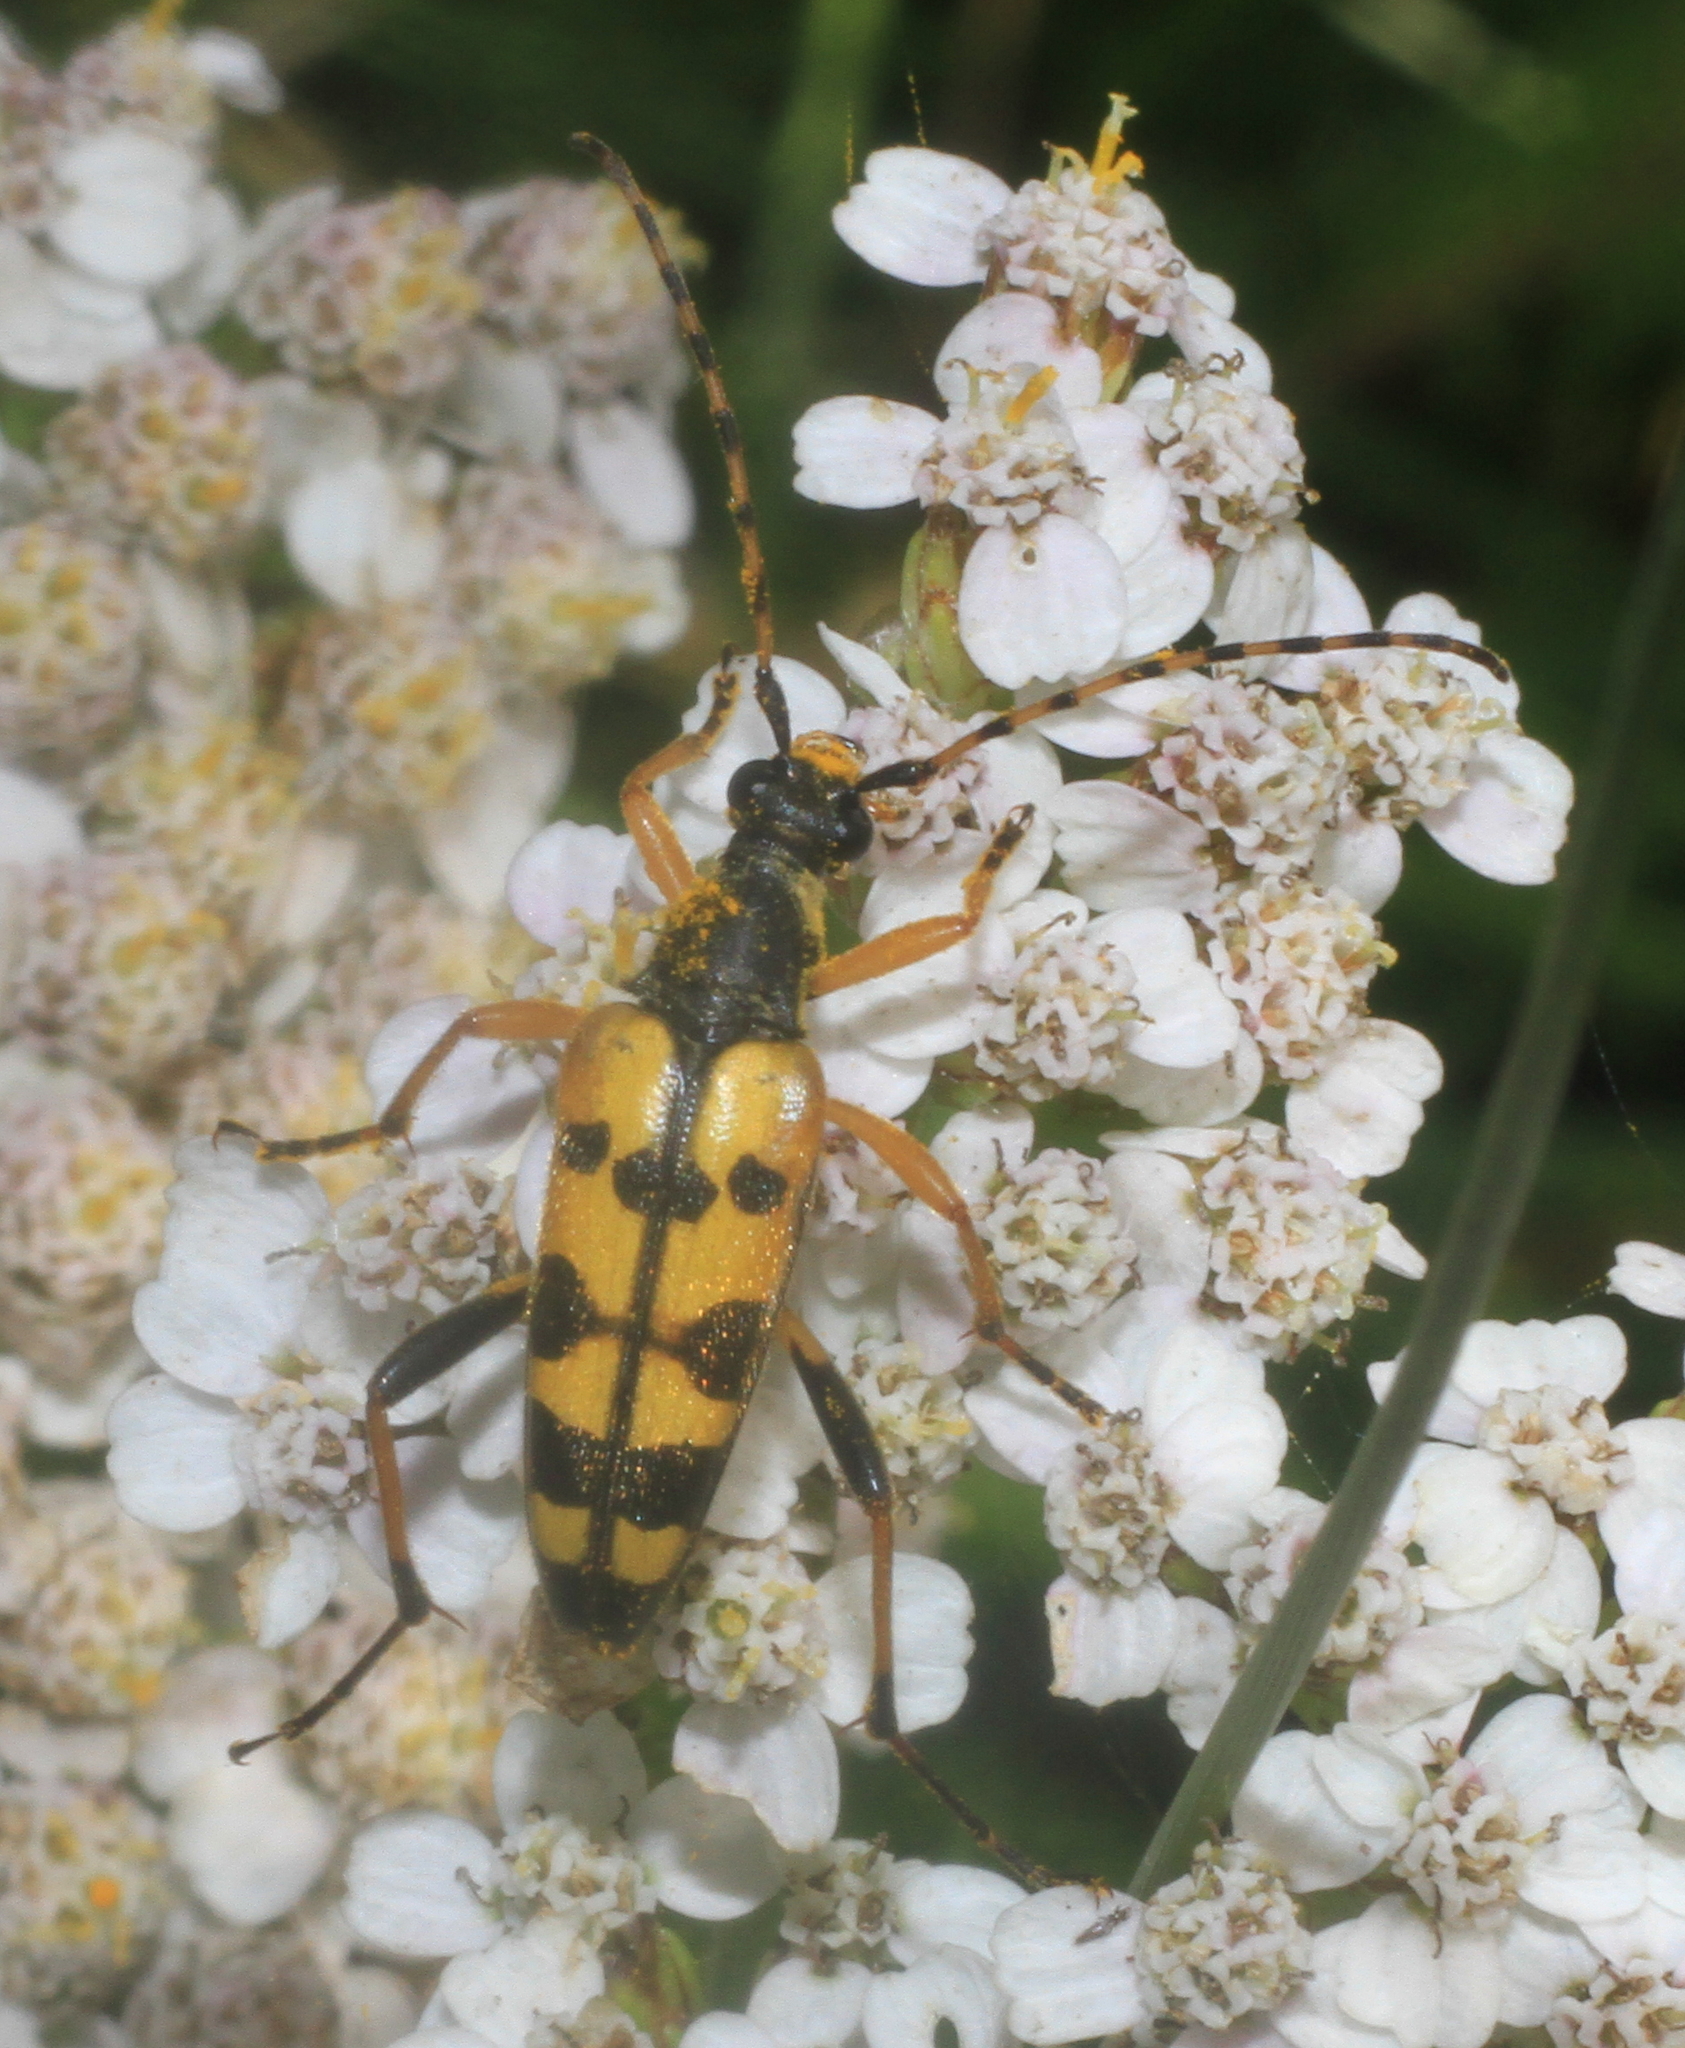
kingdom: Animalia
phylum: Arthropoda
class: Insecta
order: Coleoptera
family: Cerambycidae
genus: Rutpela
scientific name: Rutpela maculata
